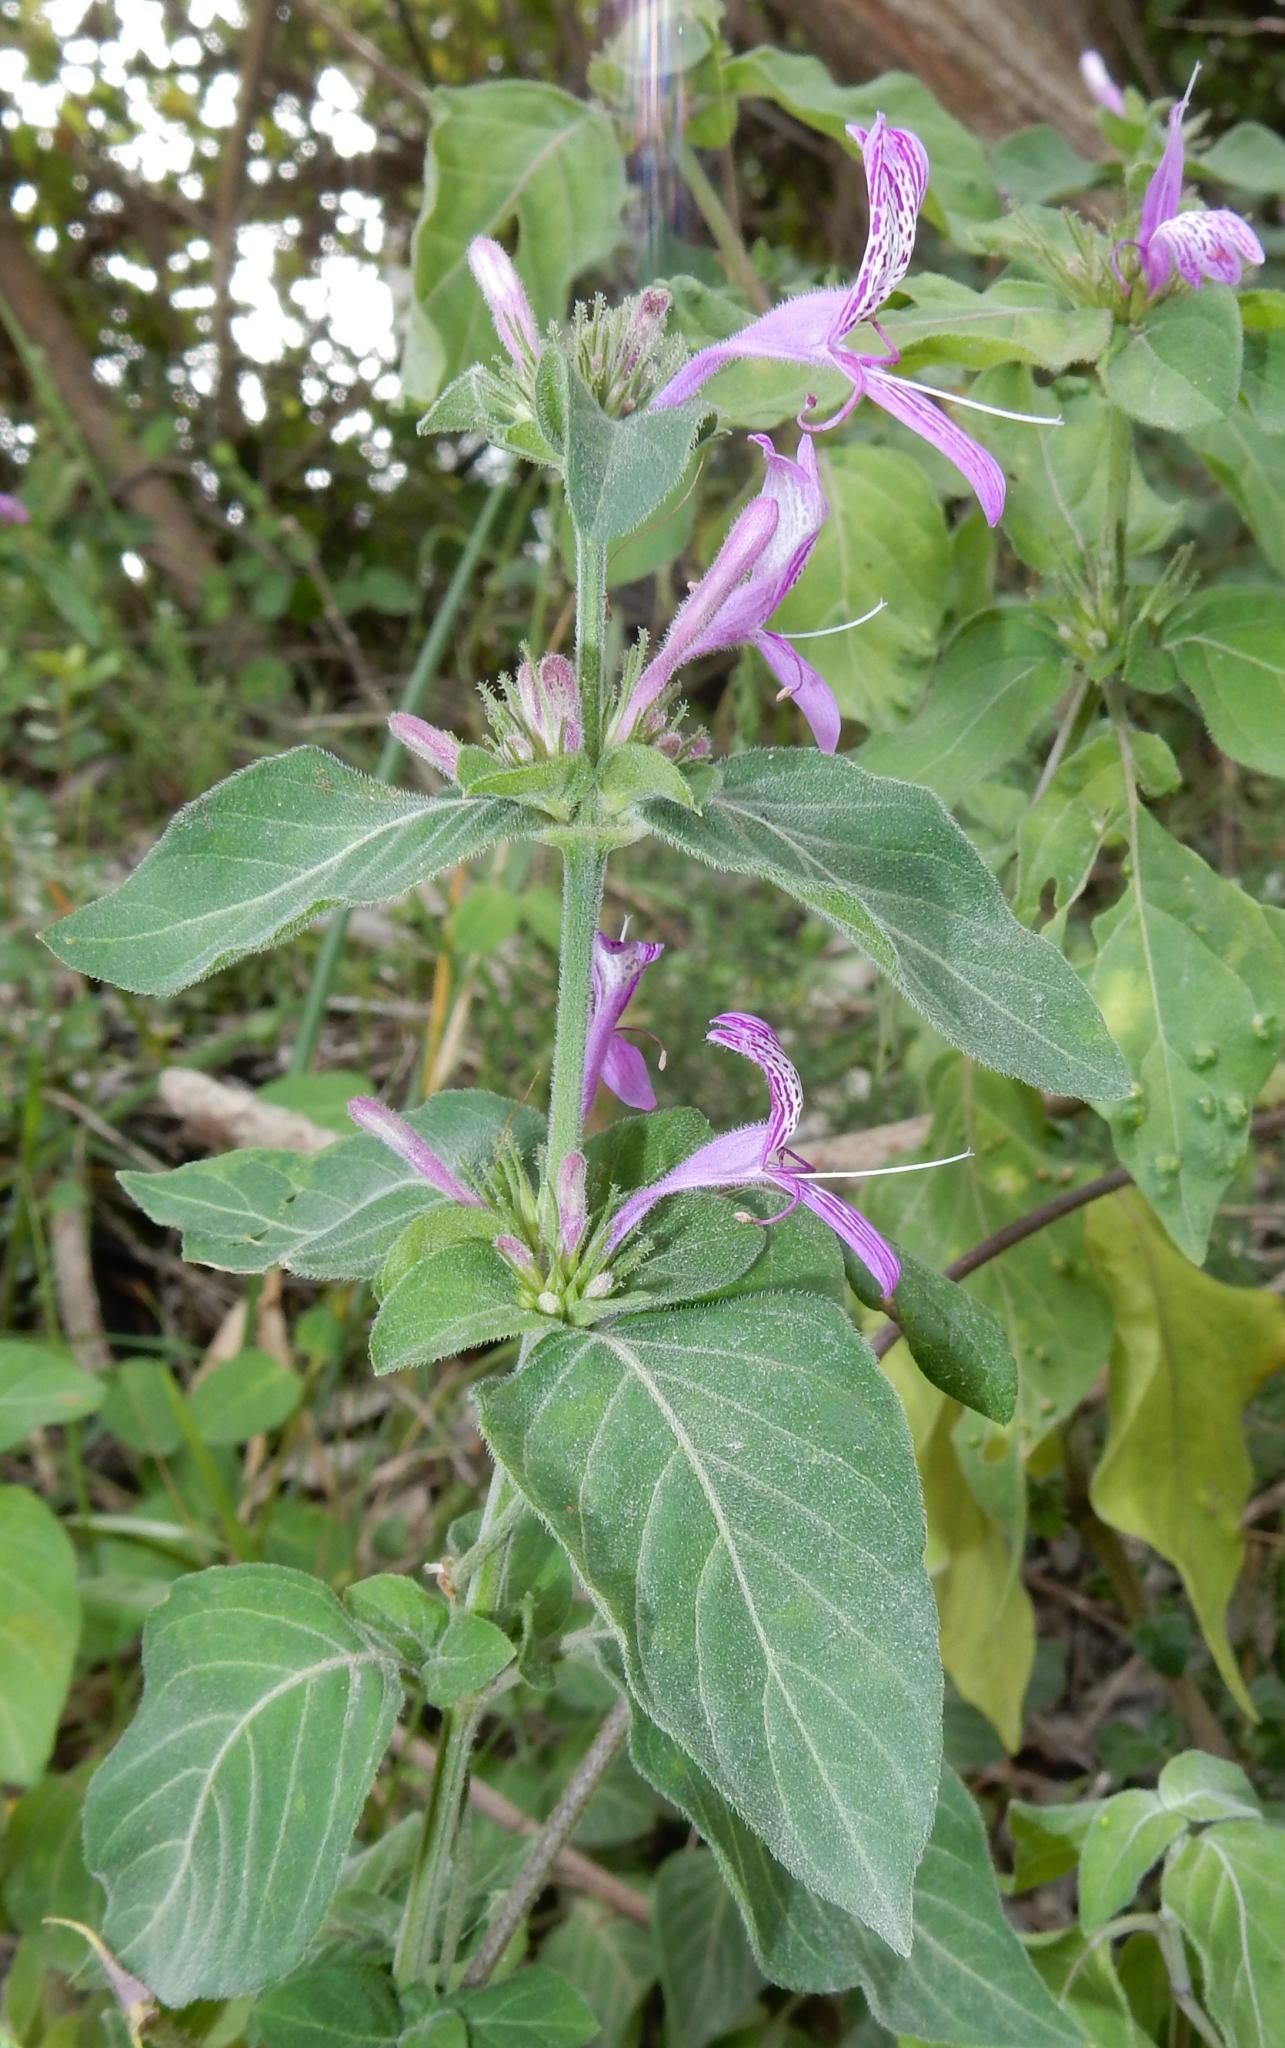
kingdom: Plantae
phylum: Tracheophyta
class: Magnoliopsida
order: Lamiales
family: Acanthaceae
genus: Hypoestes
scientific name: Hypoestes aristata
